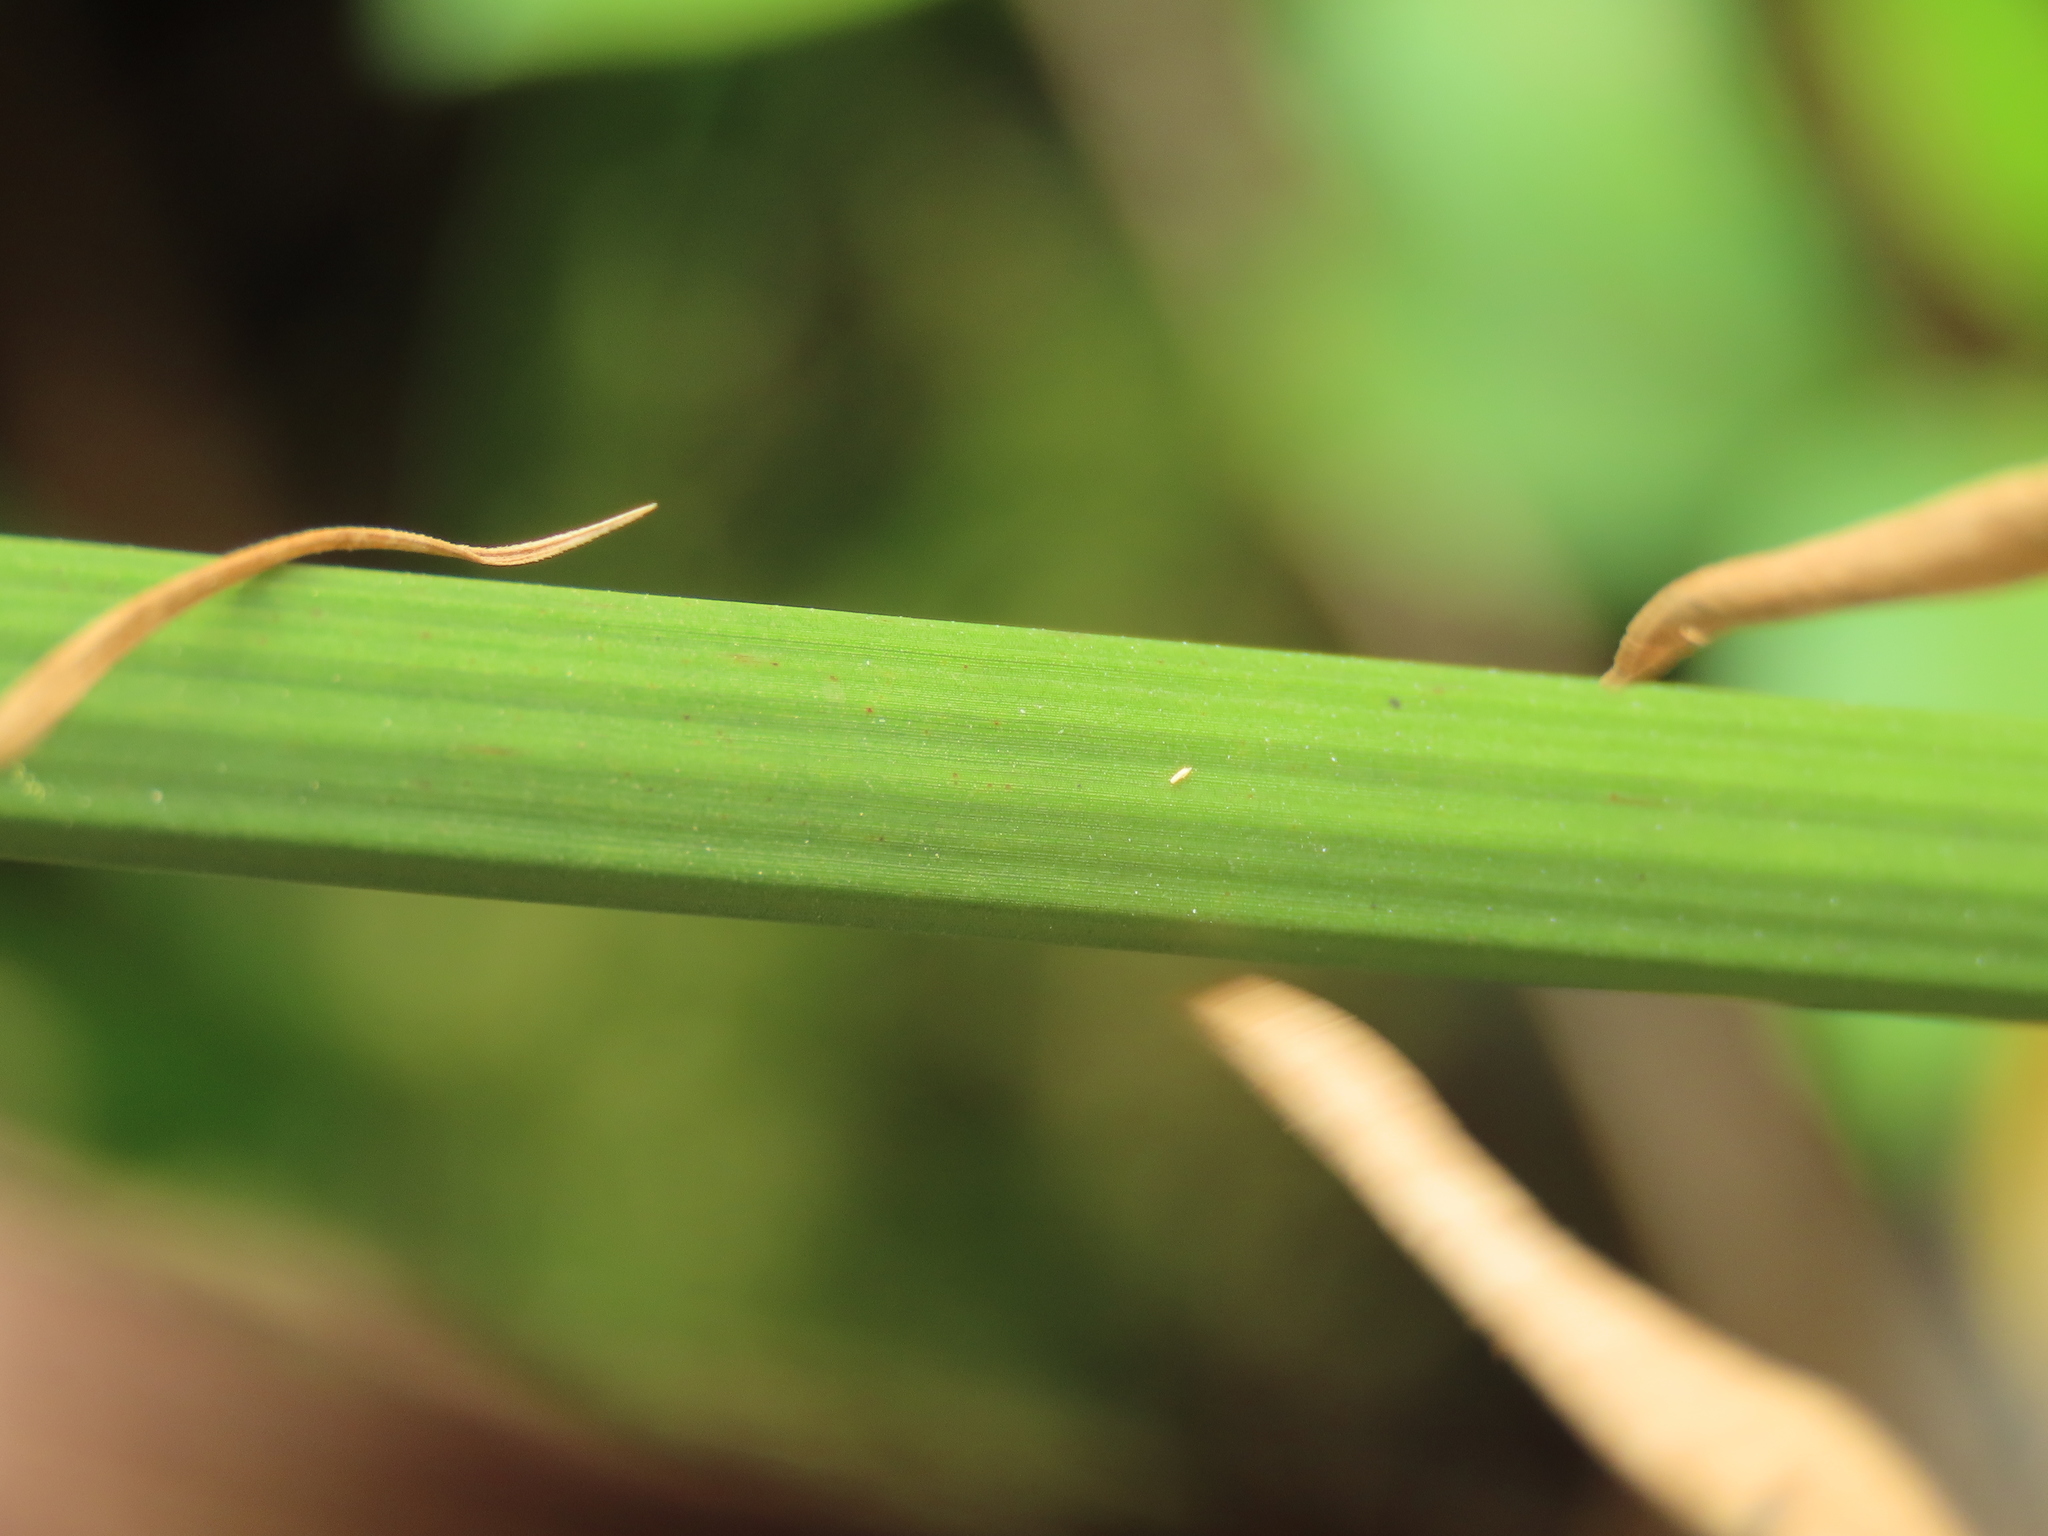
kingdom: Plantae
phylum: Tracheophyta
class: Liliopsida
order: Poales
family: Cyperaceae
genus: Cyperus
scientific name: Cyperus alternifolius
